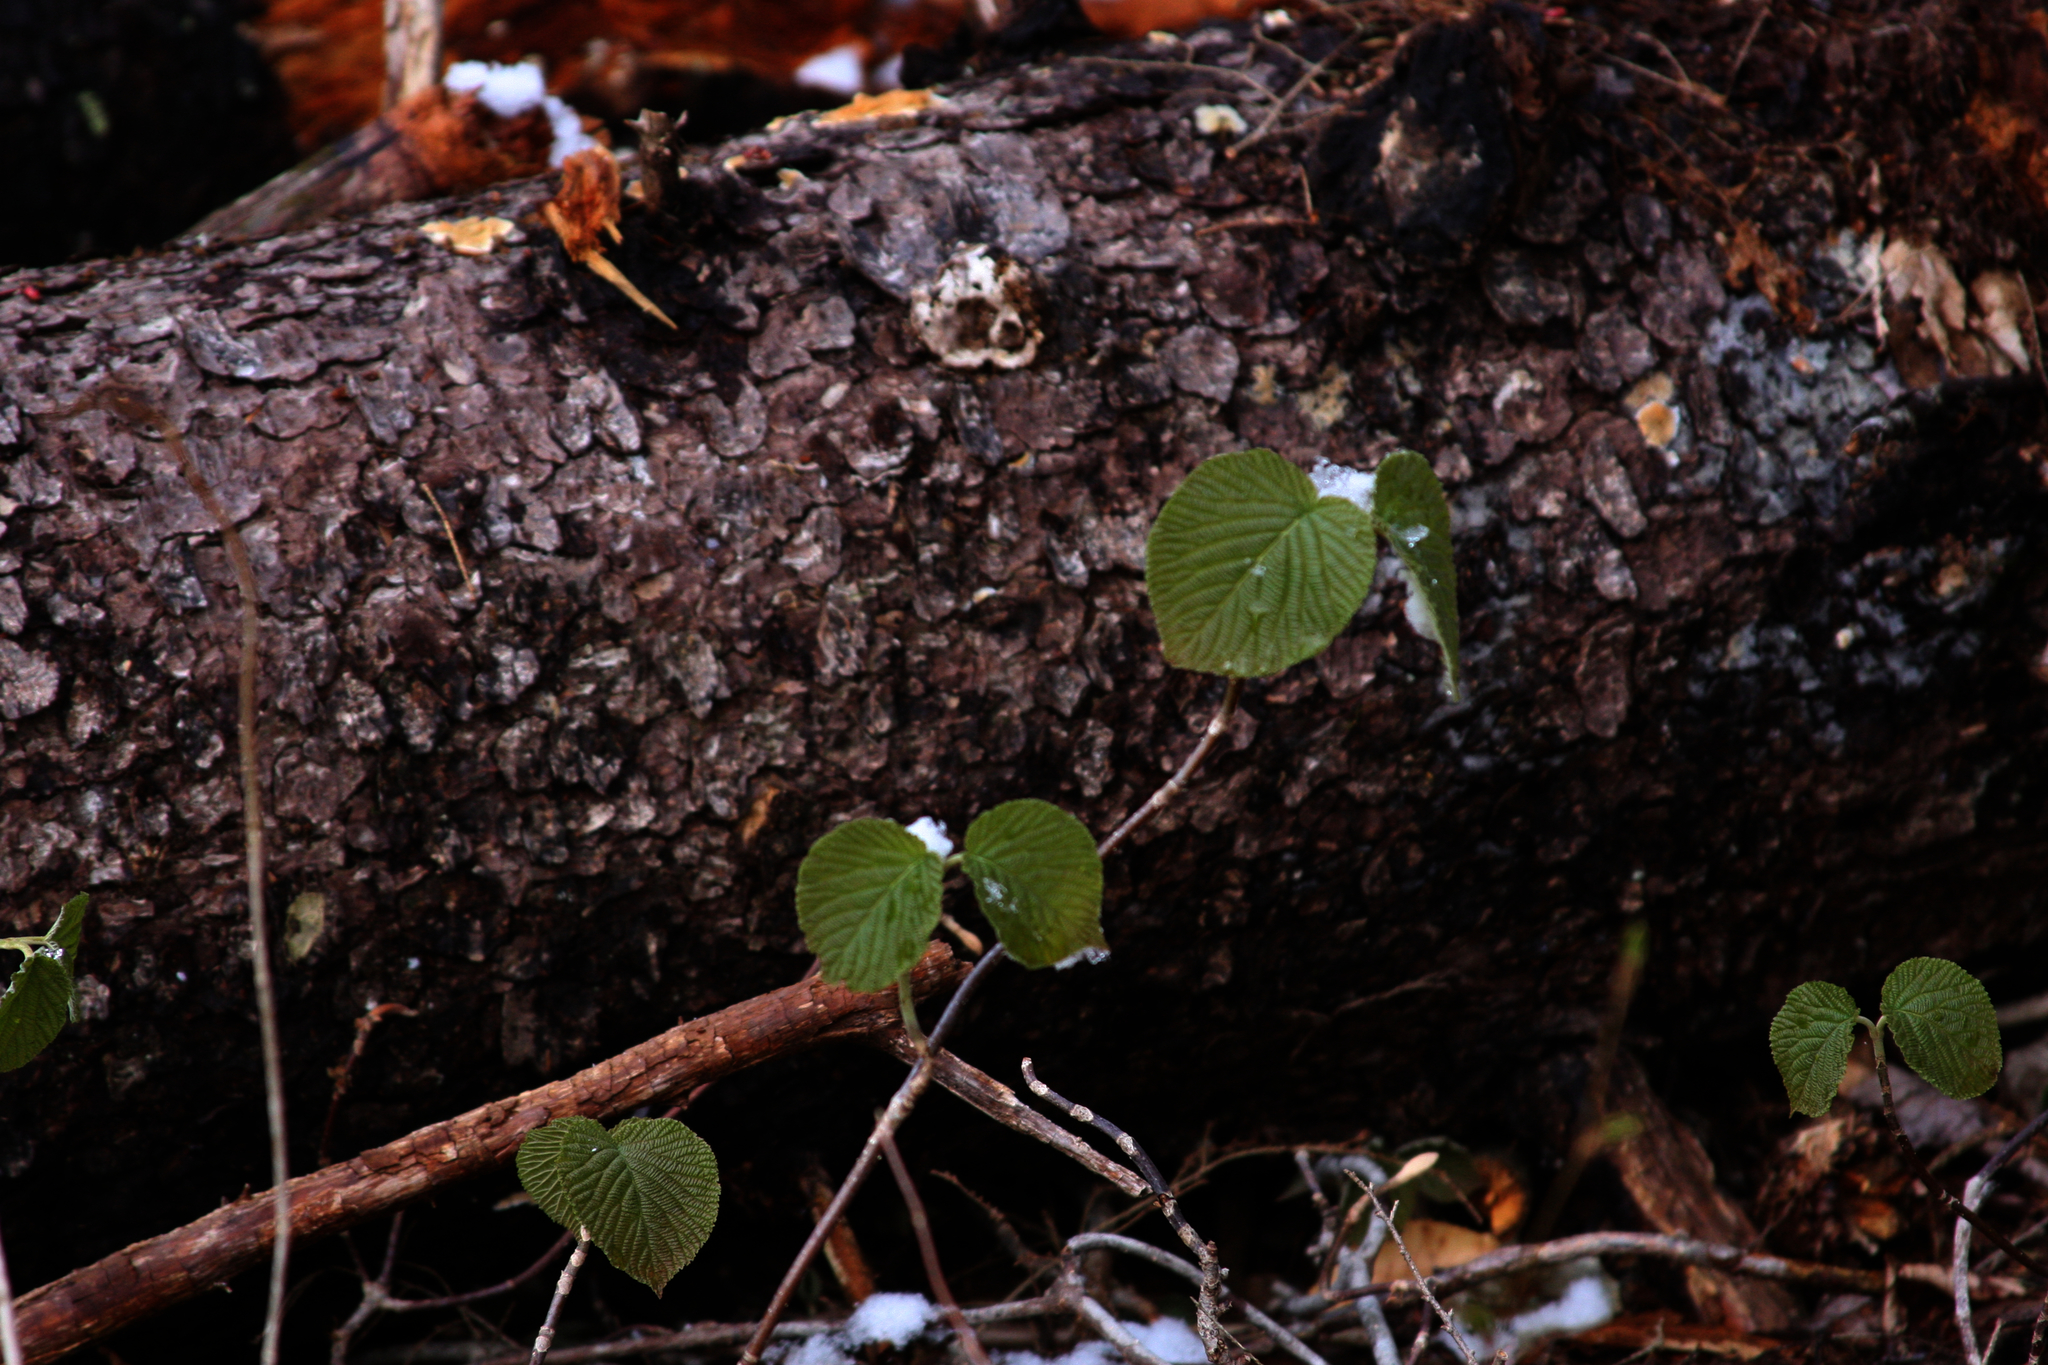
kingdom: Plantae
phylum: Tracheophyta
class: Magnoliopsida
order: Dipsacales
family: Viburnaceae
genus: Viburnum
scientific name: Viburnum lantanoides
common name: Hobblebush
